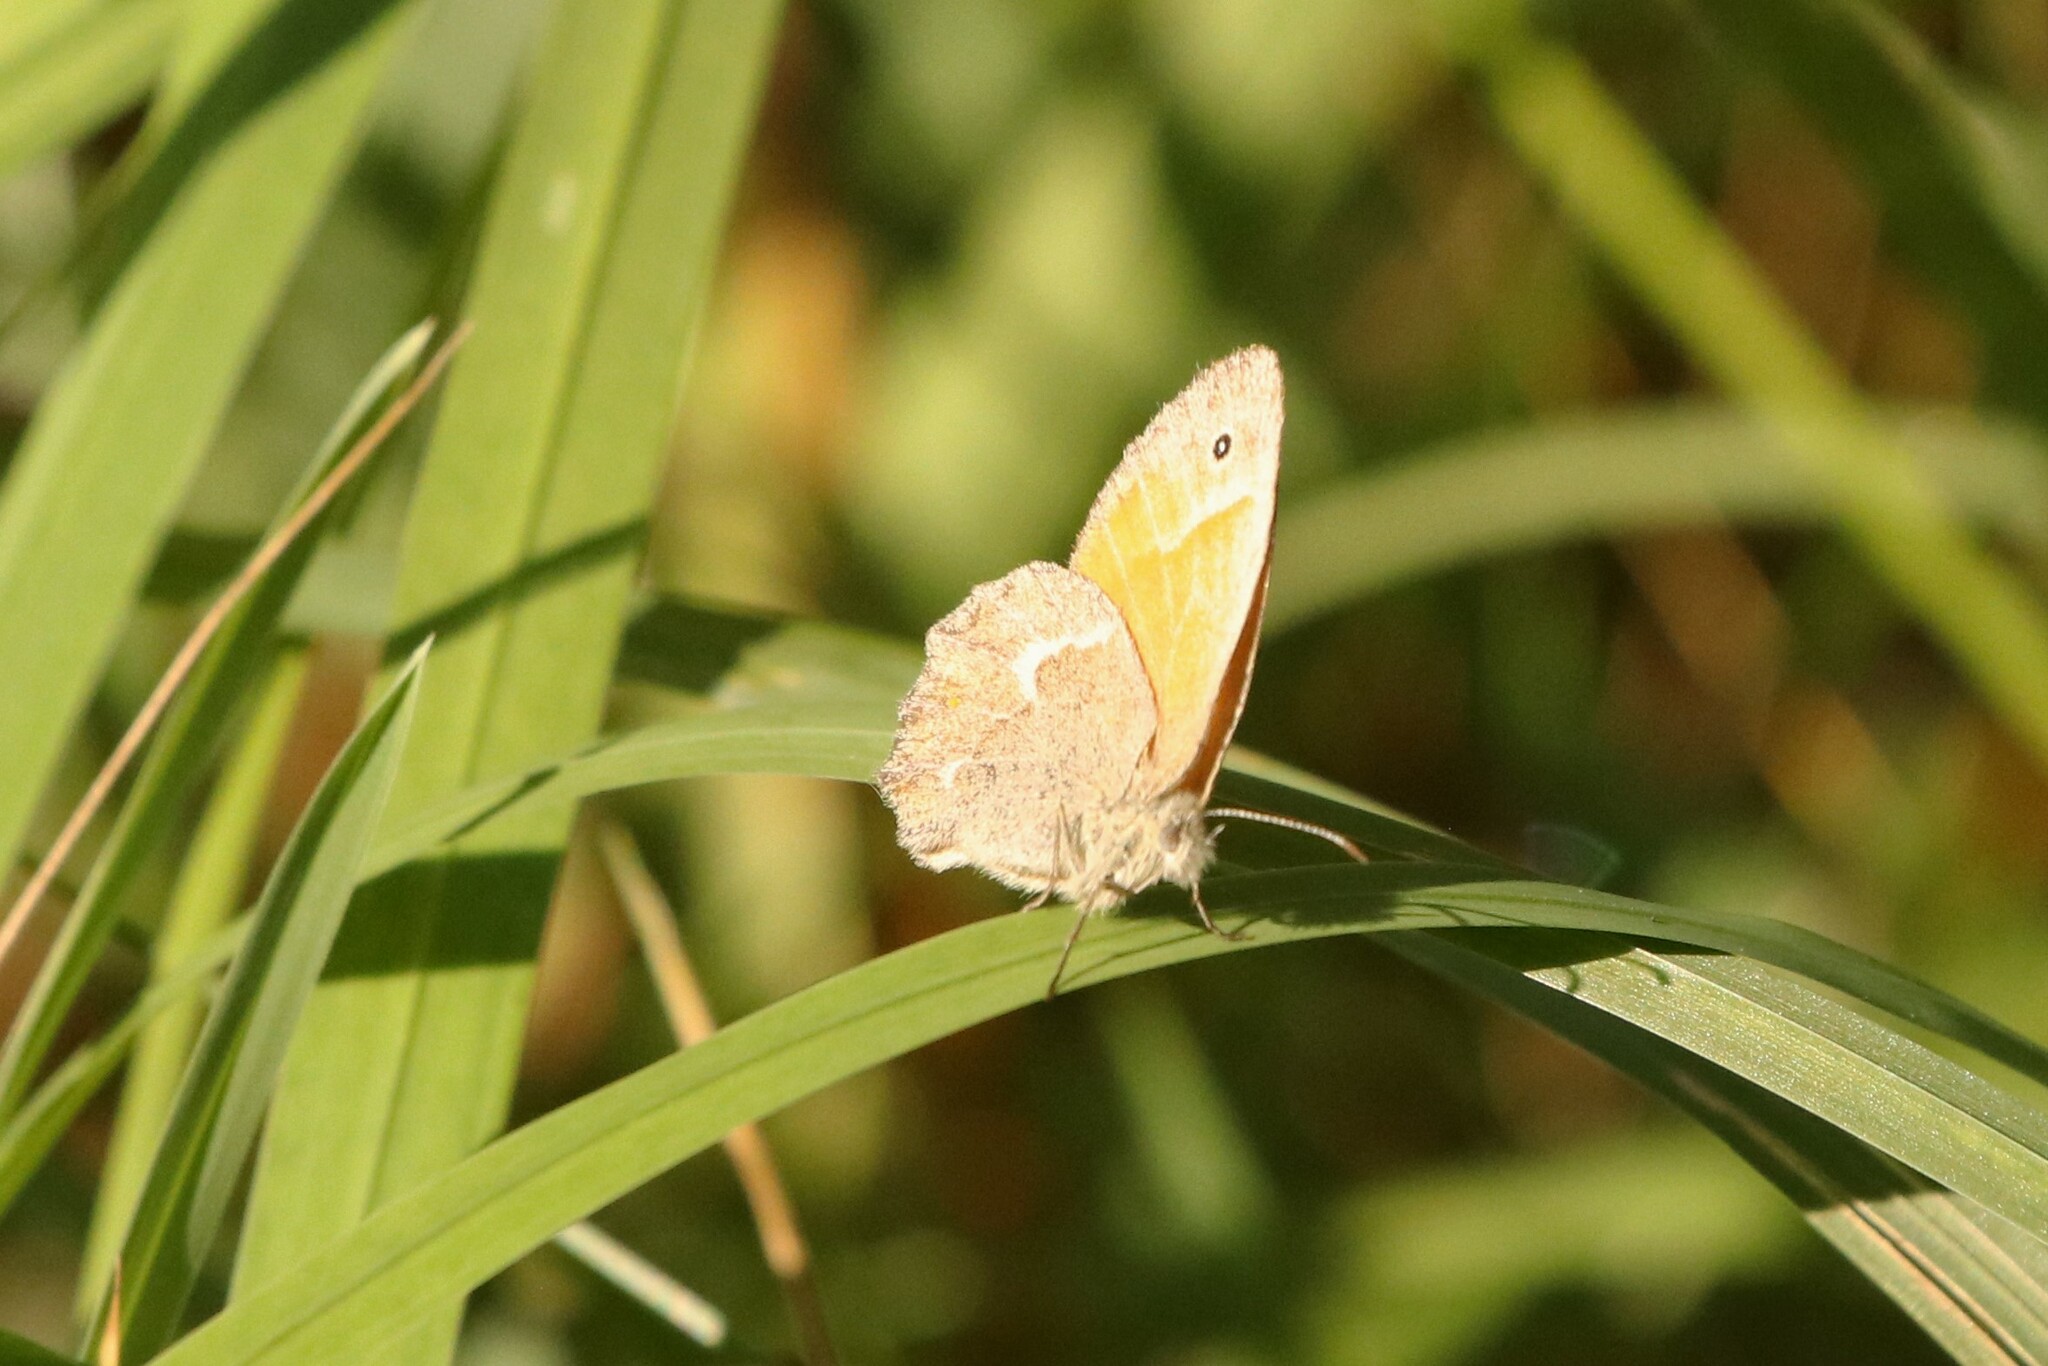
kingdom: Animalia
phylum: Arthropoda
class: Insecta
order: Lepidoptera
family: Nymphalidae
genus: Coenonympha
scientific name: Coenonympha california
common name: Common ringlet
